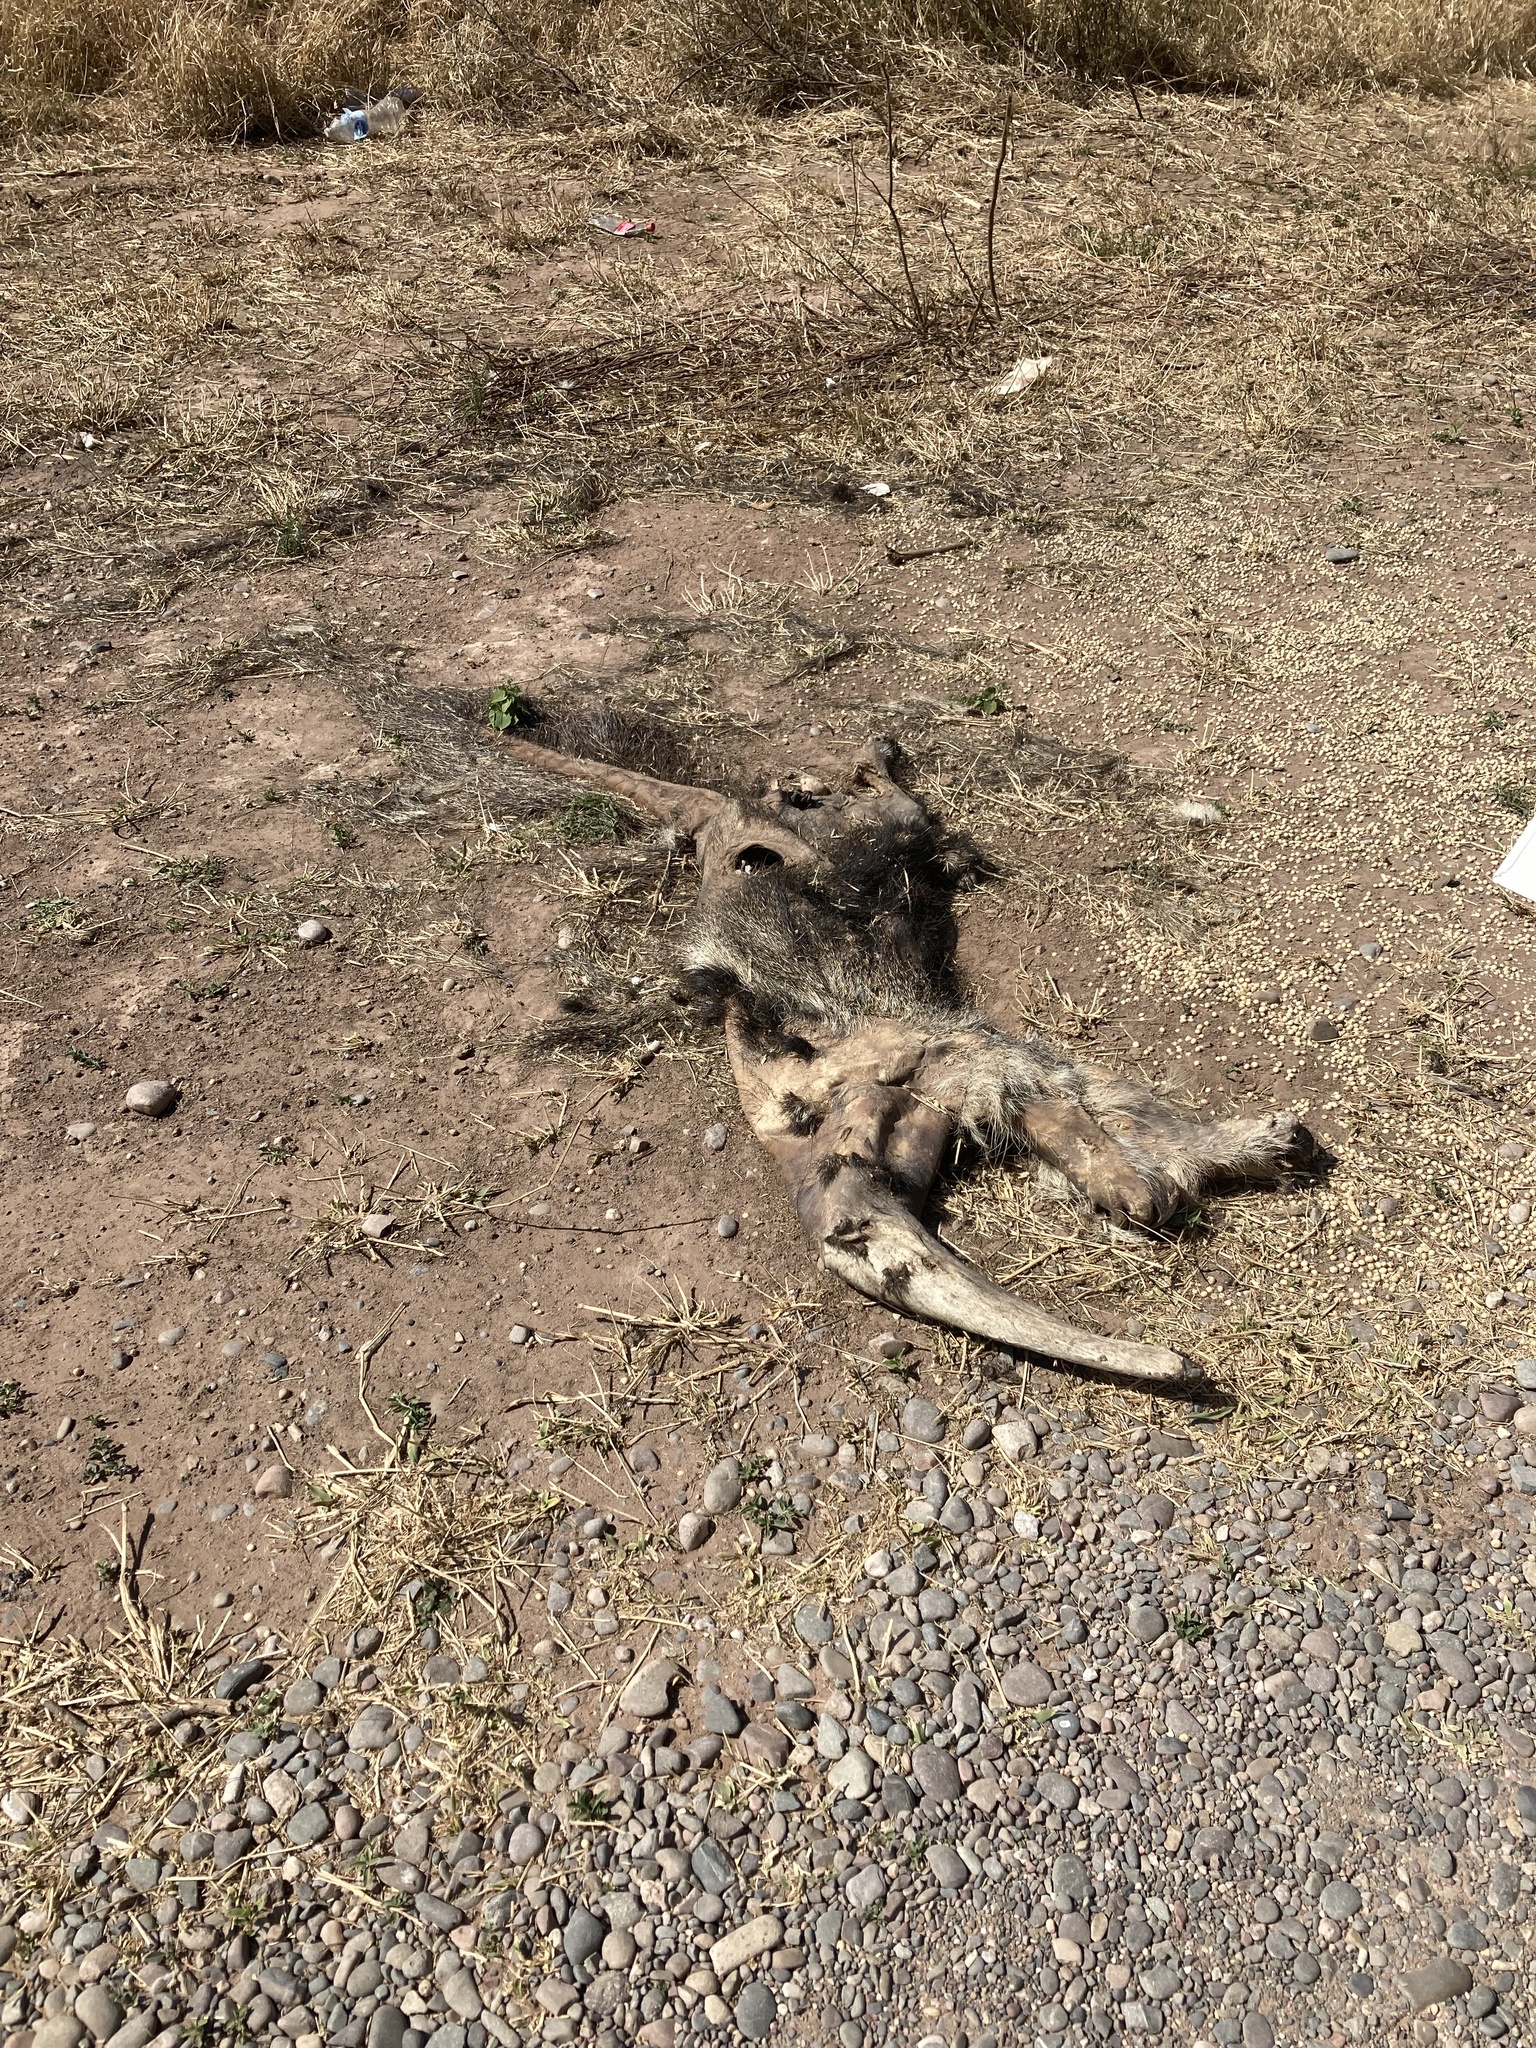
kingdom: Animalia
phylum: Chordata
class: Mammalia
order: Pilosa
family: Myrmecophagidae
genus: Myrmecophaga
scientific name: Myrmecophaga tridactyla
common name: Giant anteater
